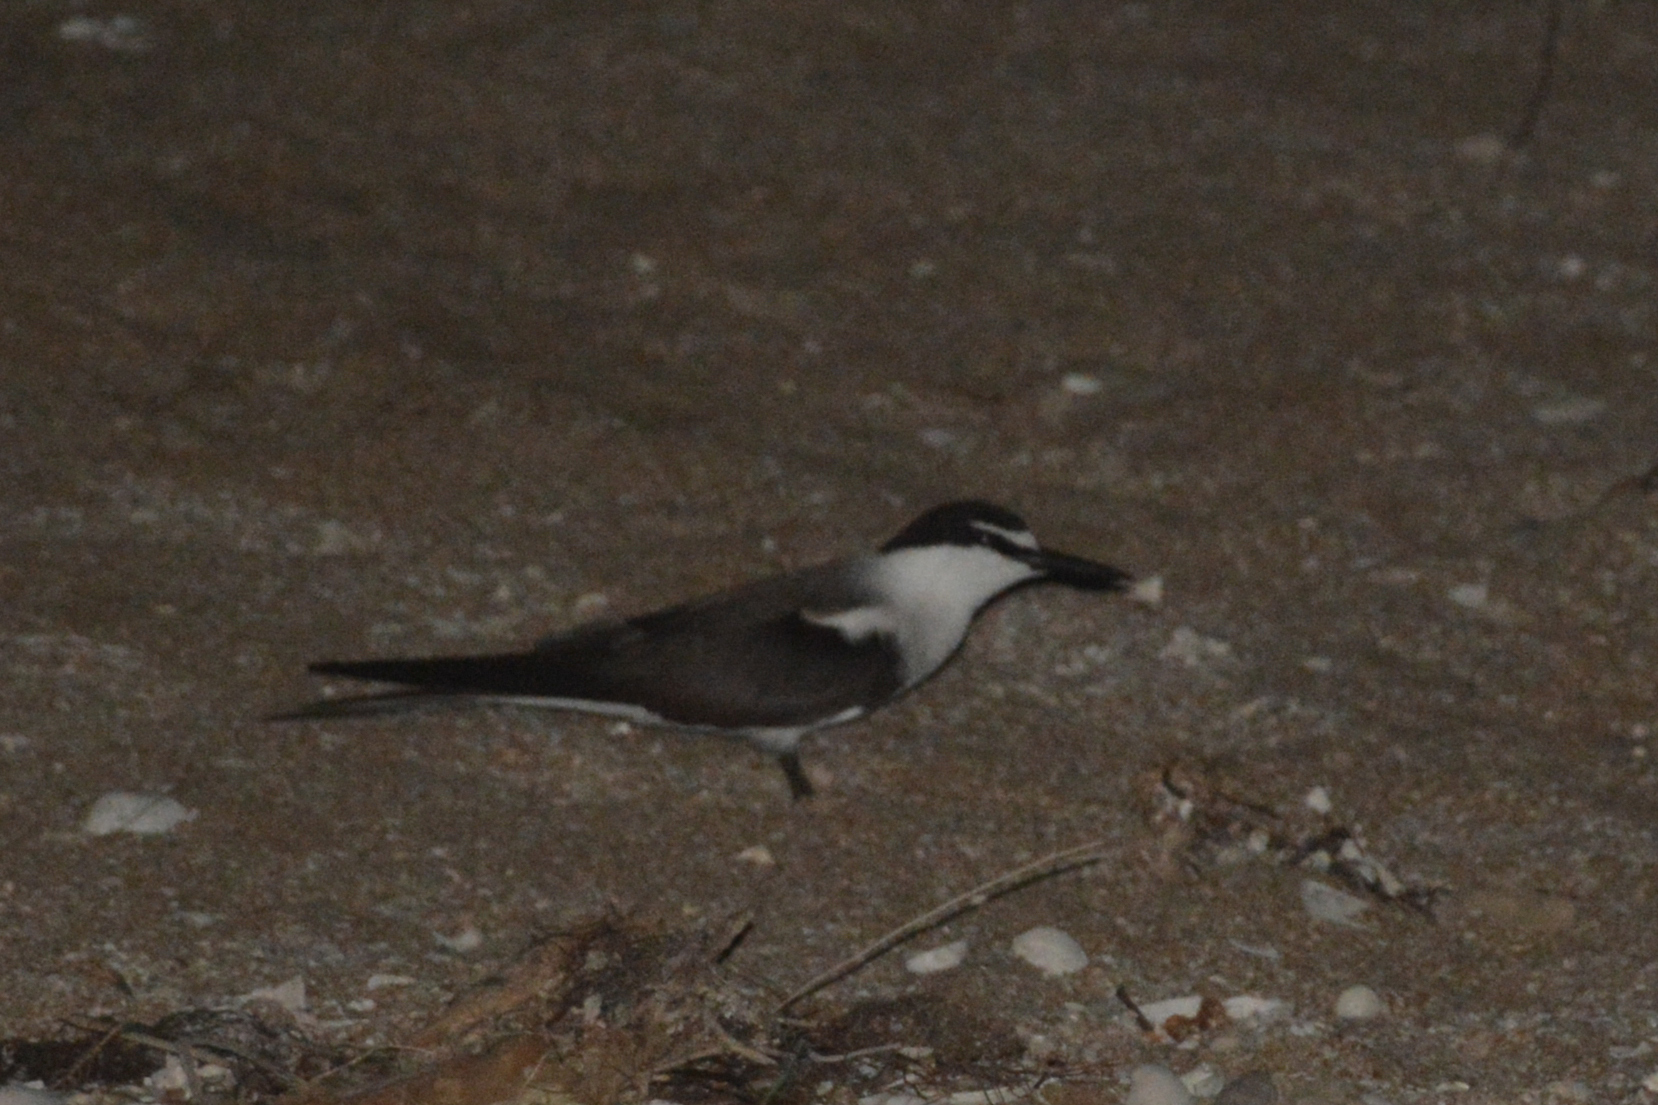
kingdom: Animalia
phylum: Chordata
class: Aves
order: Charadriiformes
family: Laridae
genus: Onychoprion
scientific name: Onychoprion anaethetus
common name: Bridled tern
